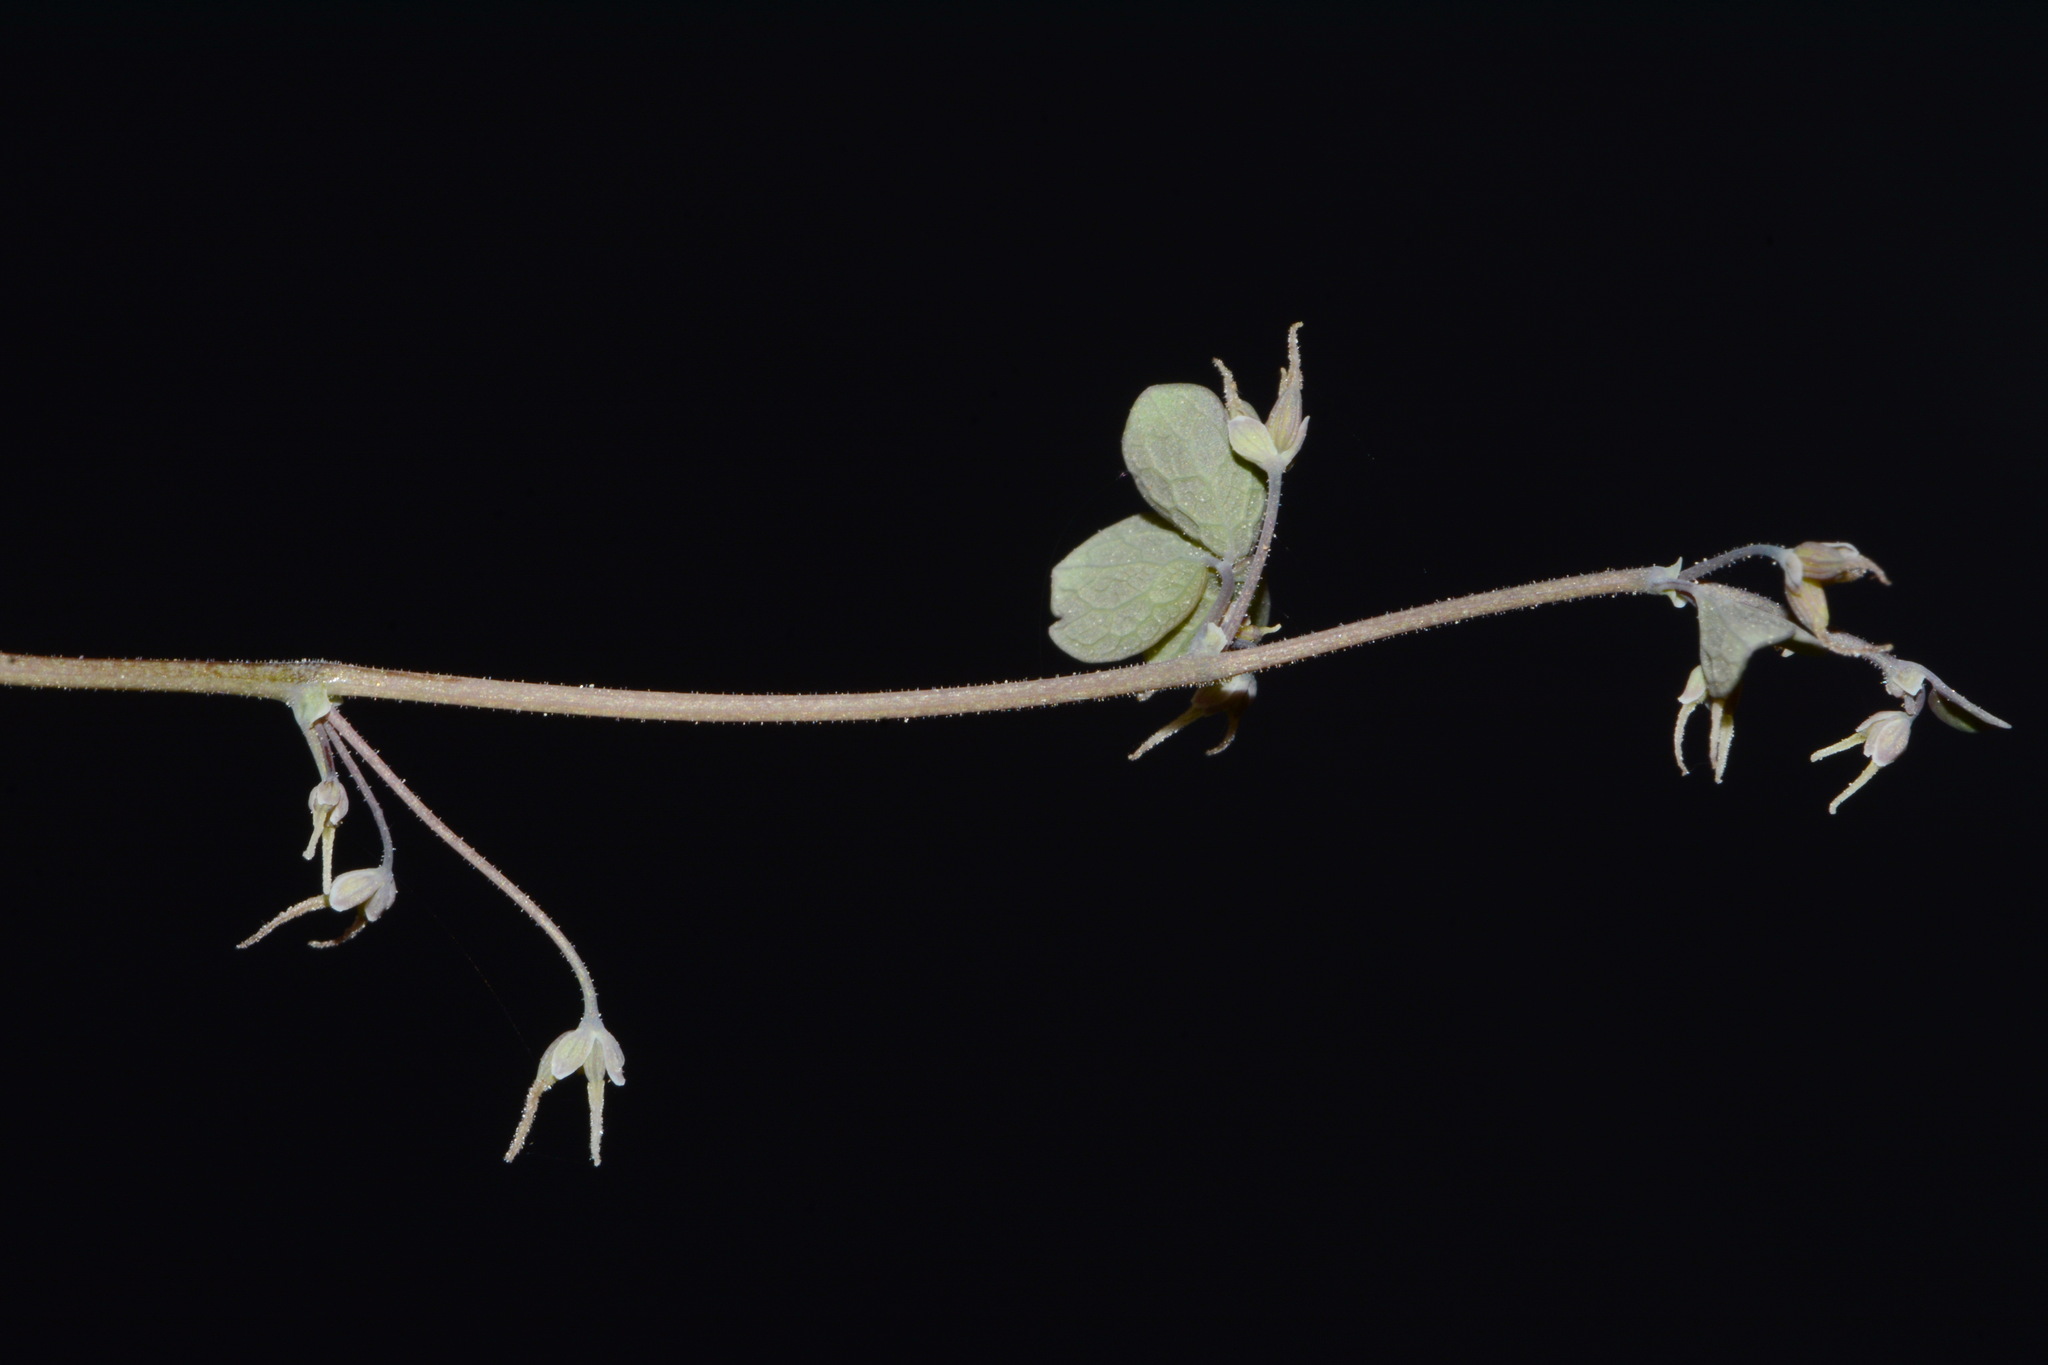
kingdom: Plantae
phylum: Tracheophyta
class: Magnoliopsida
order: Ranunculales
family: Ranunculaceae
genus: Thalictrum
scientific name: Thalictrum debile
